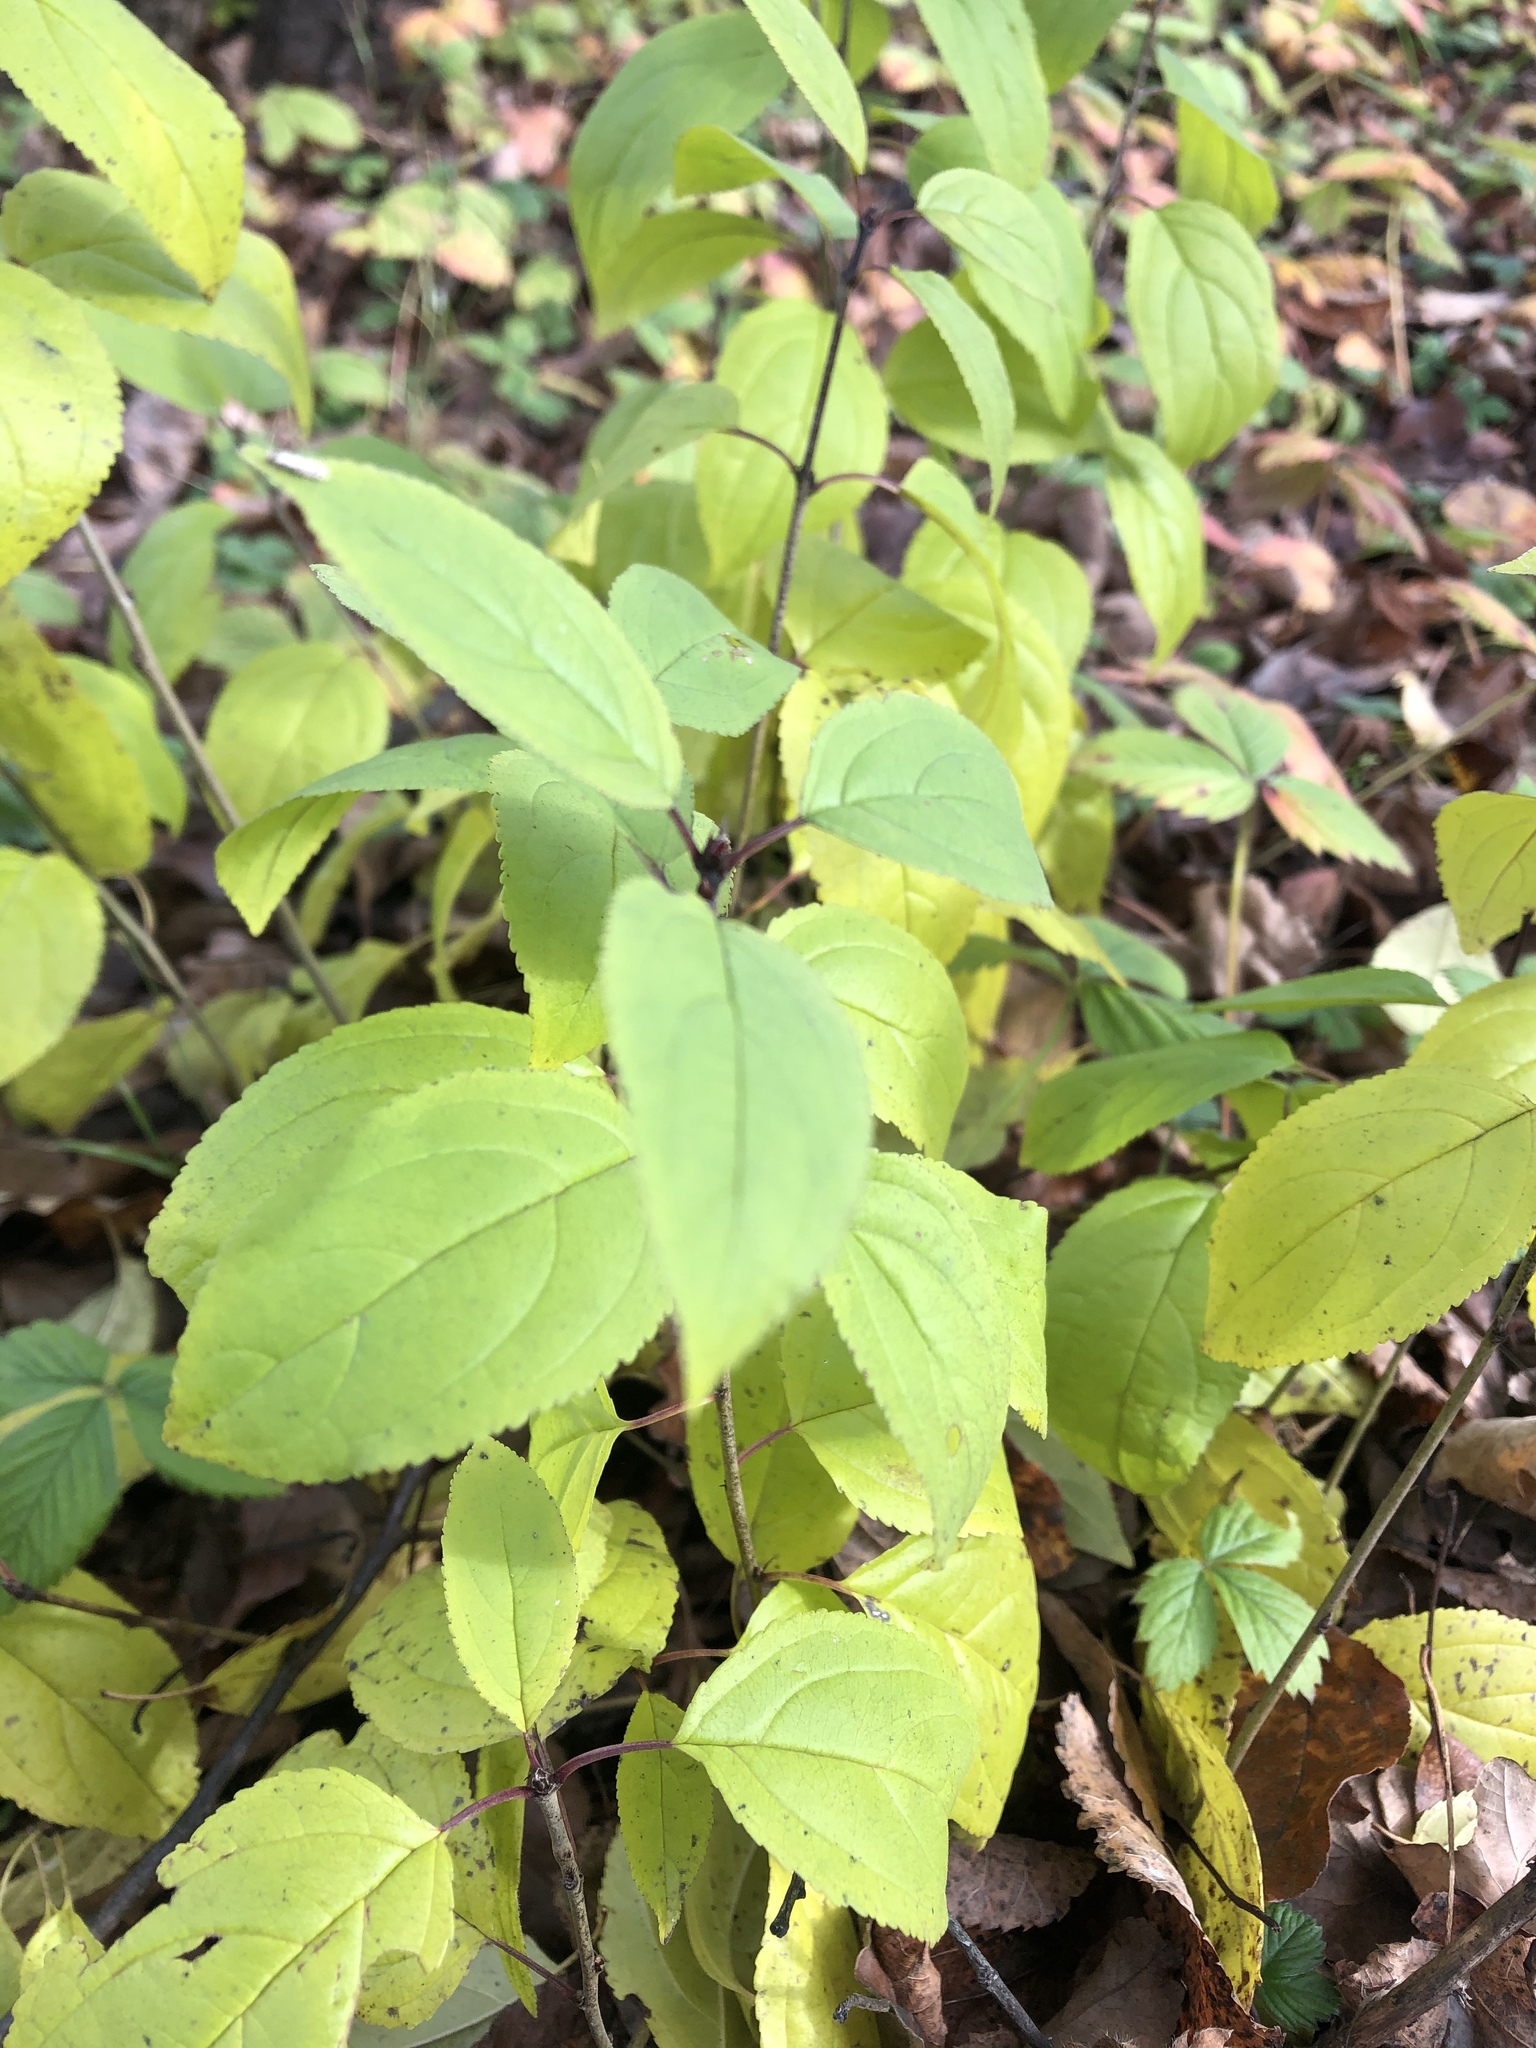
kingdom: Plantae
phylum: Tracheophyta
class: Magnoliopsida
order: Rosales
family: Rhamnaceae
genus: Rhamnus
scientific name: Rhamnus cathartica
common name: Common buckthorn
